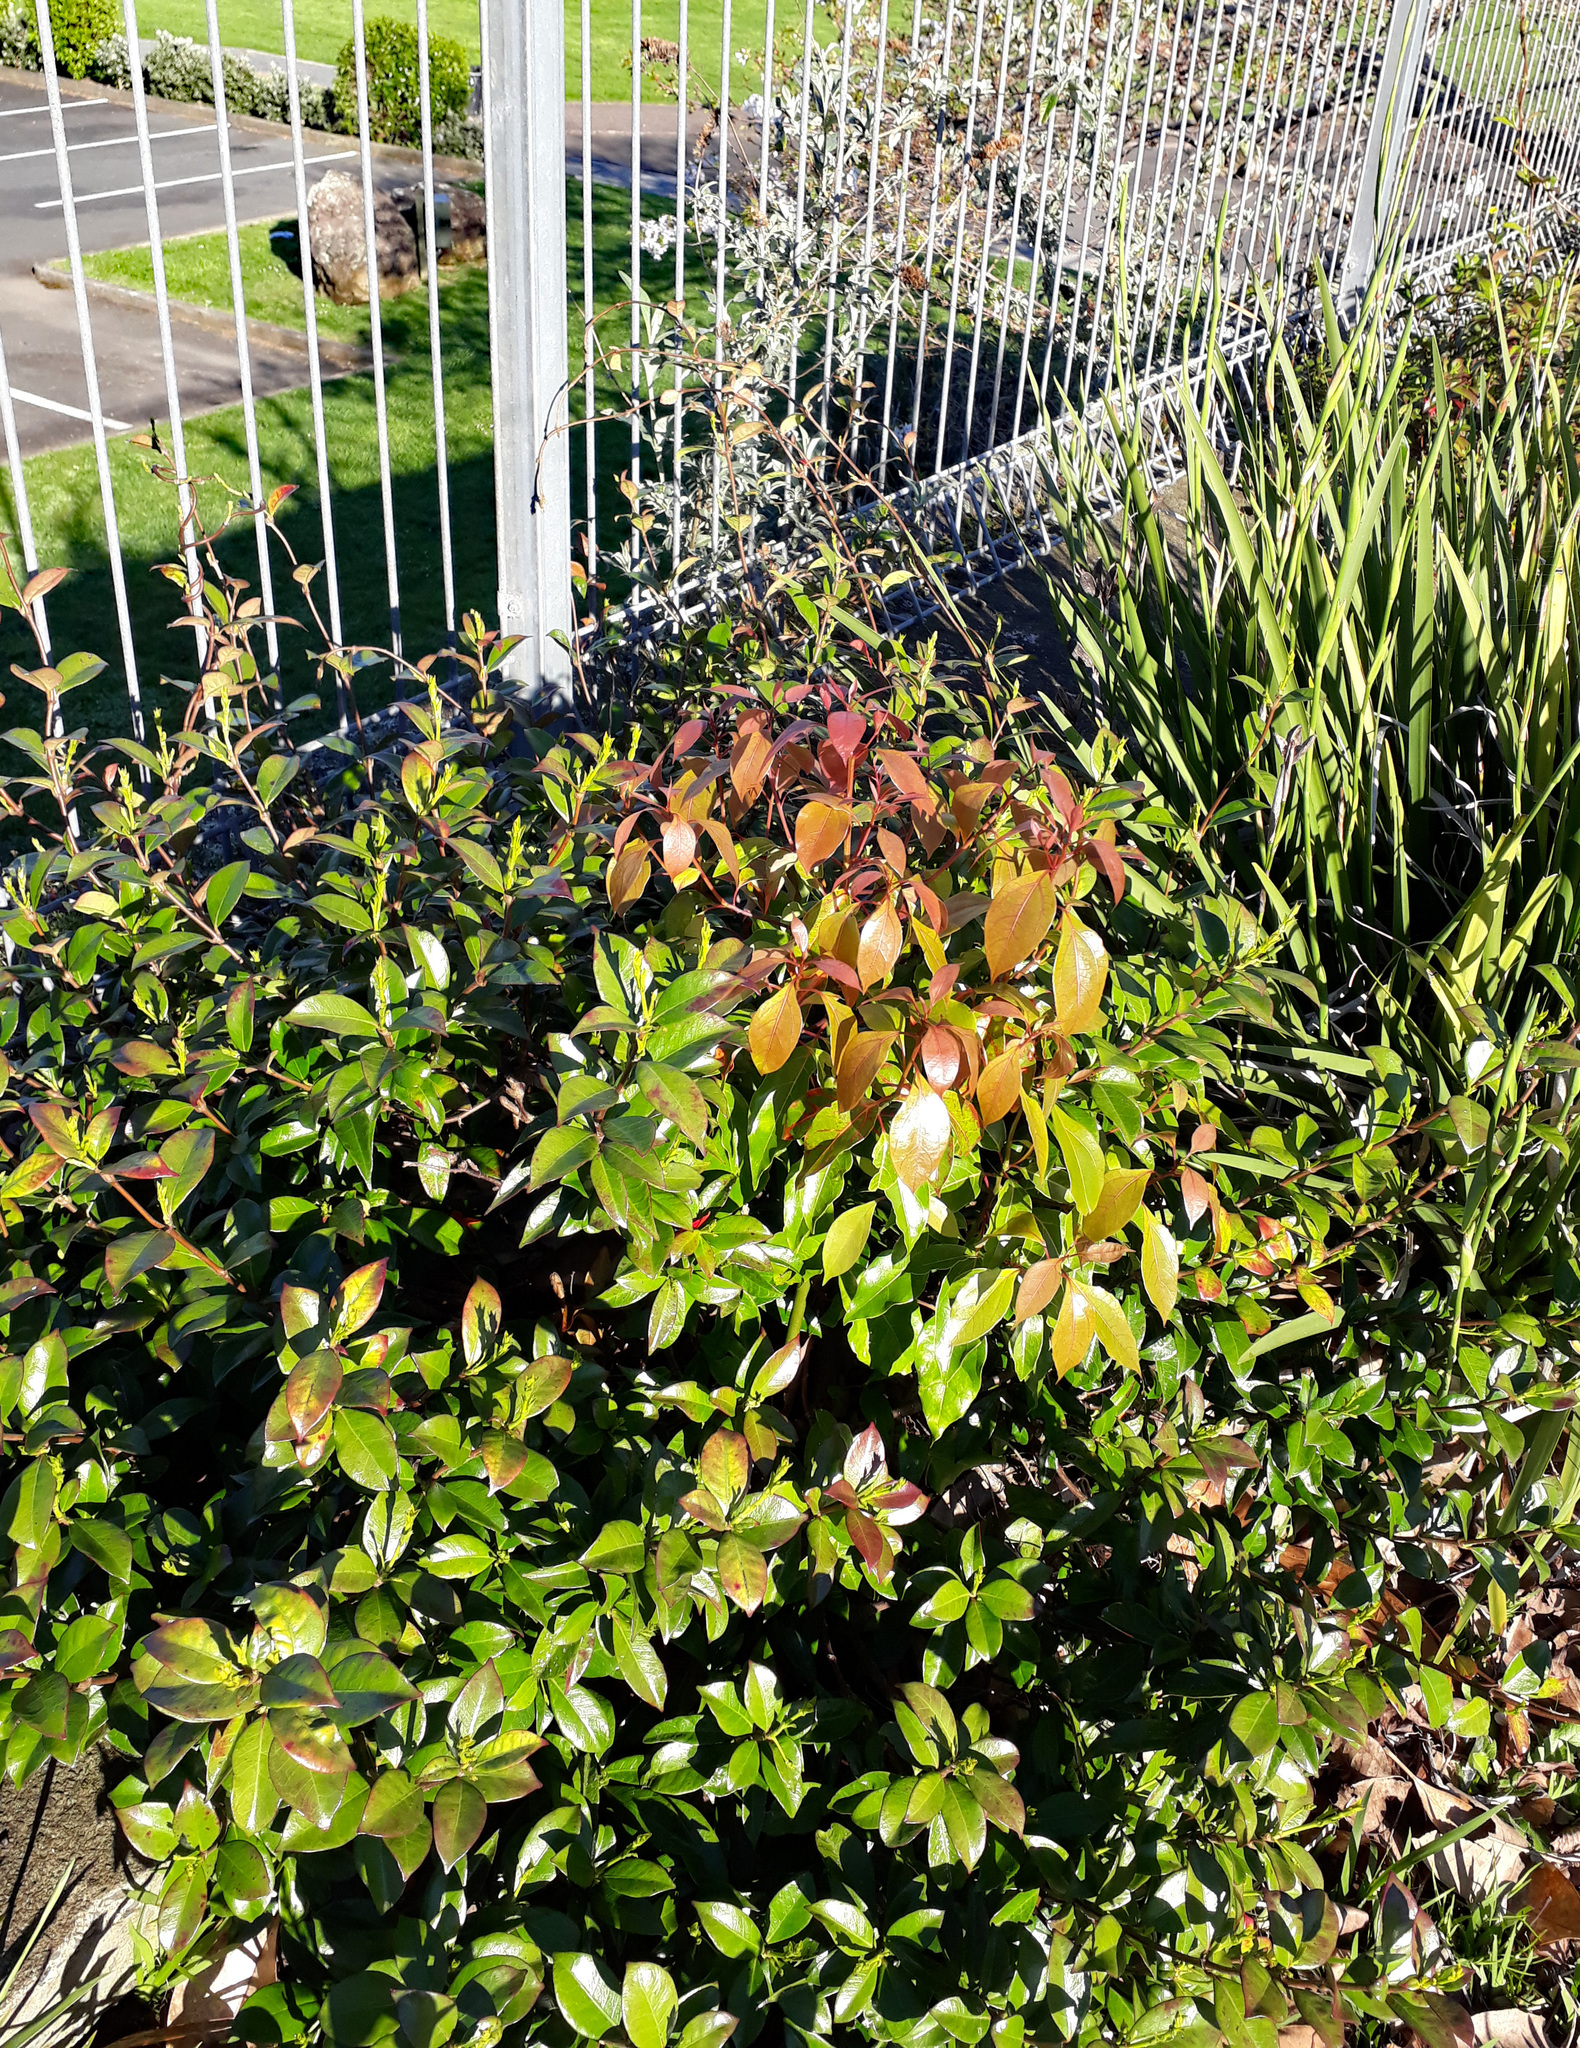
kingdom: Plantae
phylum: Tracheophyta
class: Magnoliopsida
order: Laurales
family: Lauraceae
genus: Cinnamomum
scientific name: Cinnamomum camphora
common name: Camphortree
